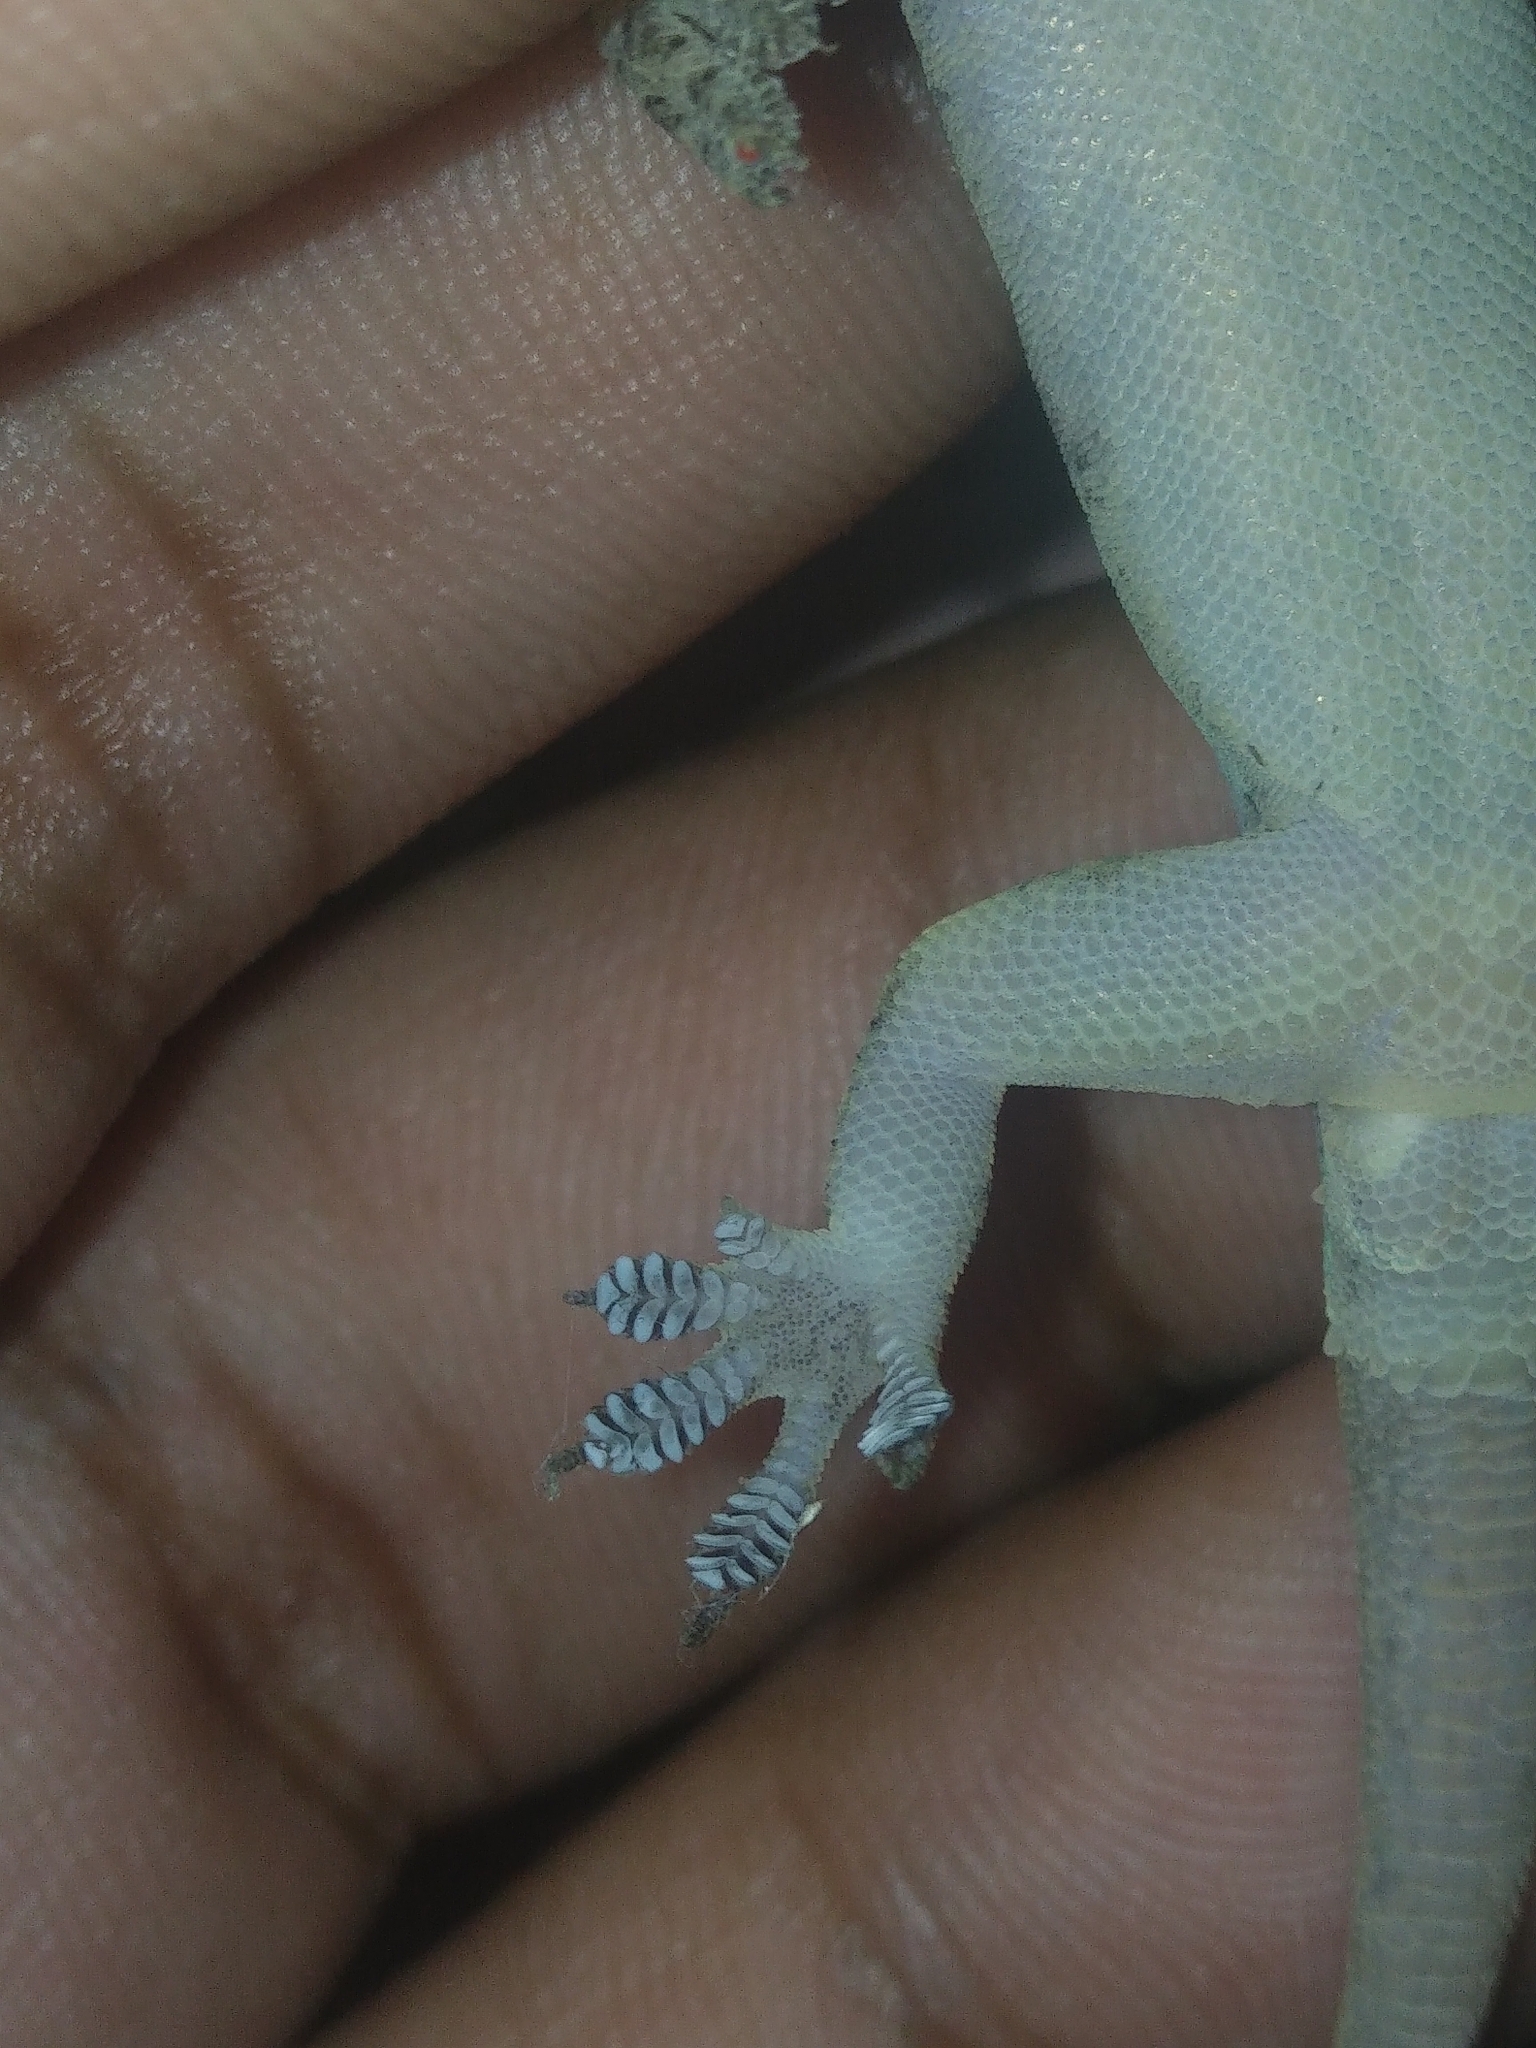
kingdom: Animalia
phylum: Chordata
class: Squamata
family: Gekkonidae
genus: Hemidactylus
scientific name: Hemidactylus frenatus
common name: Common house gecko
